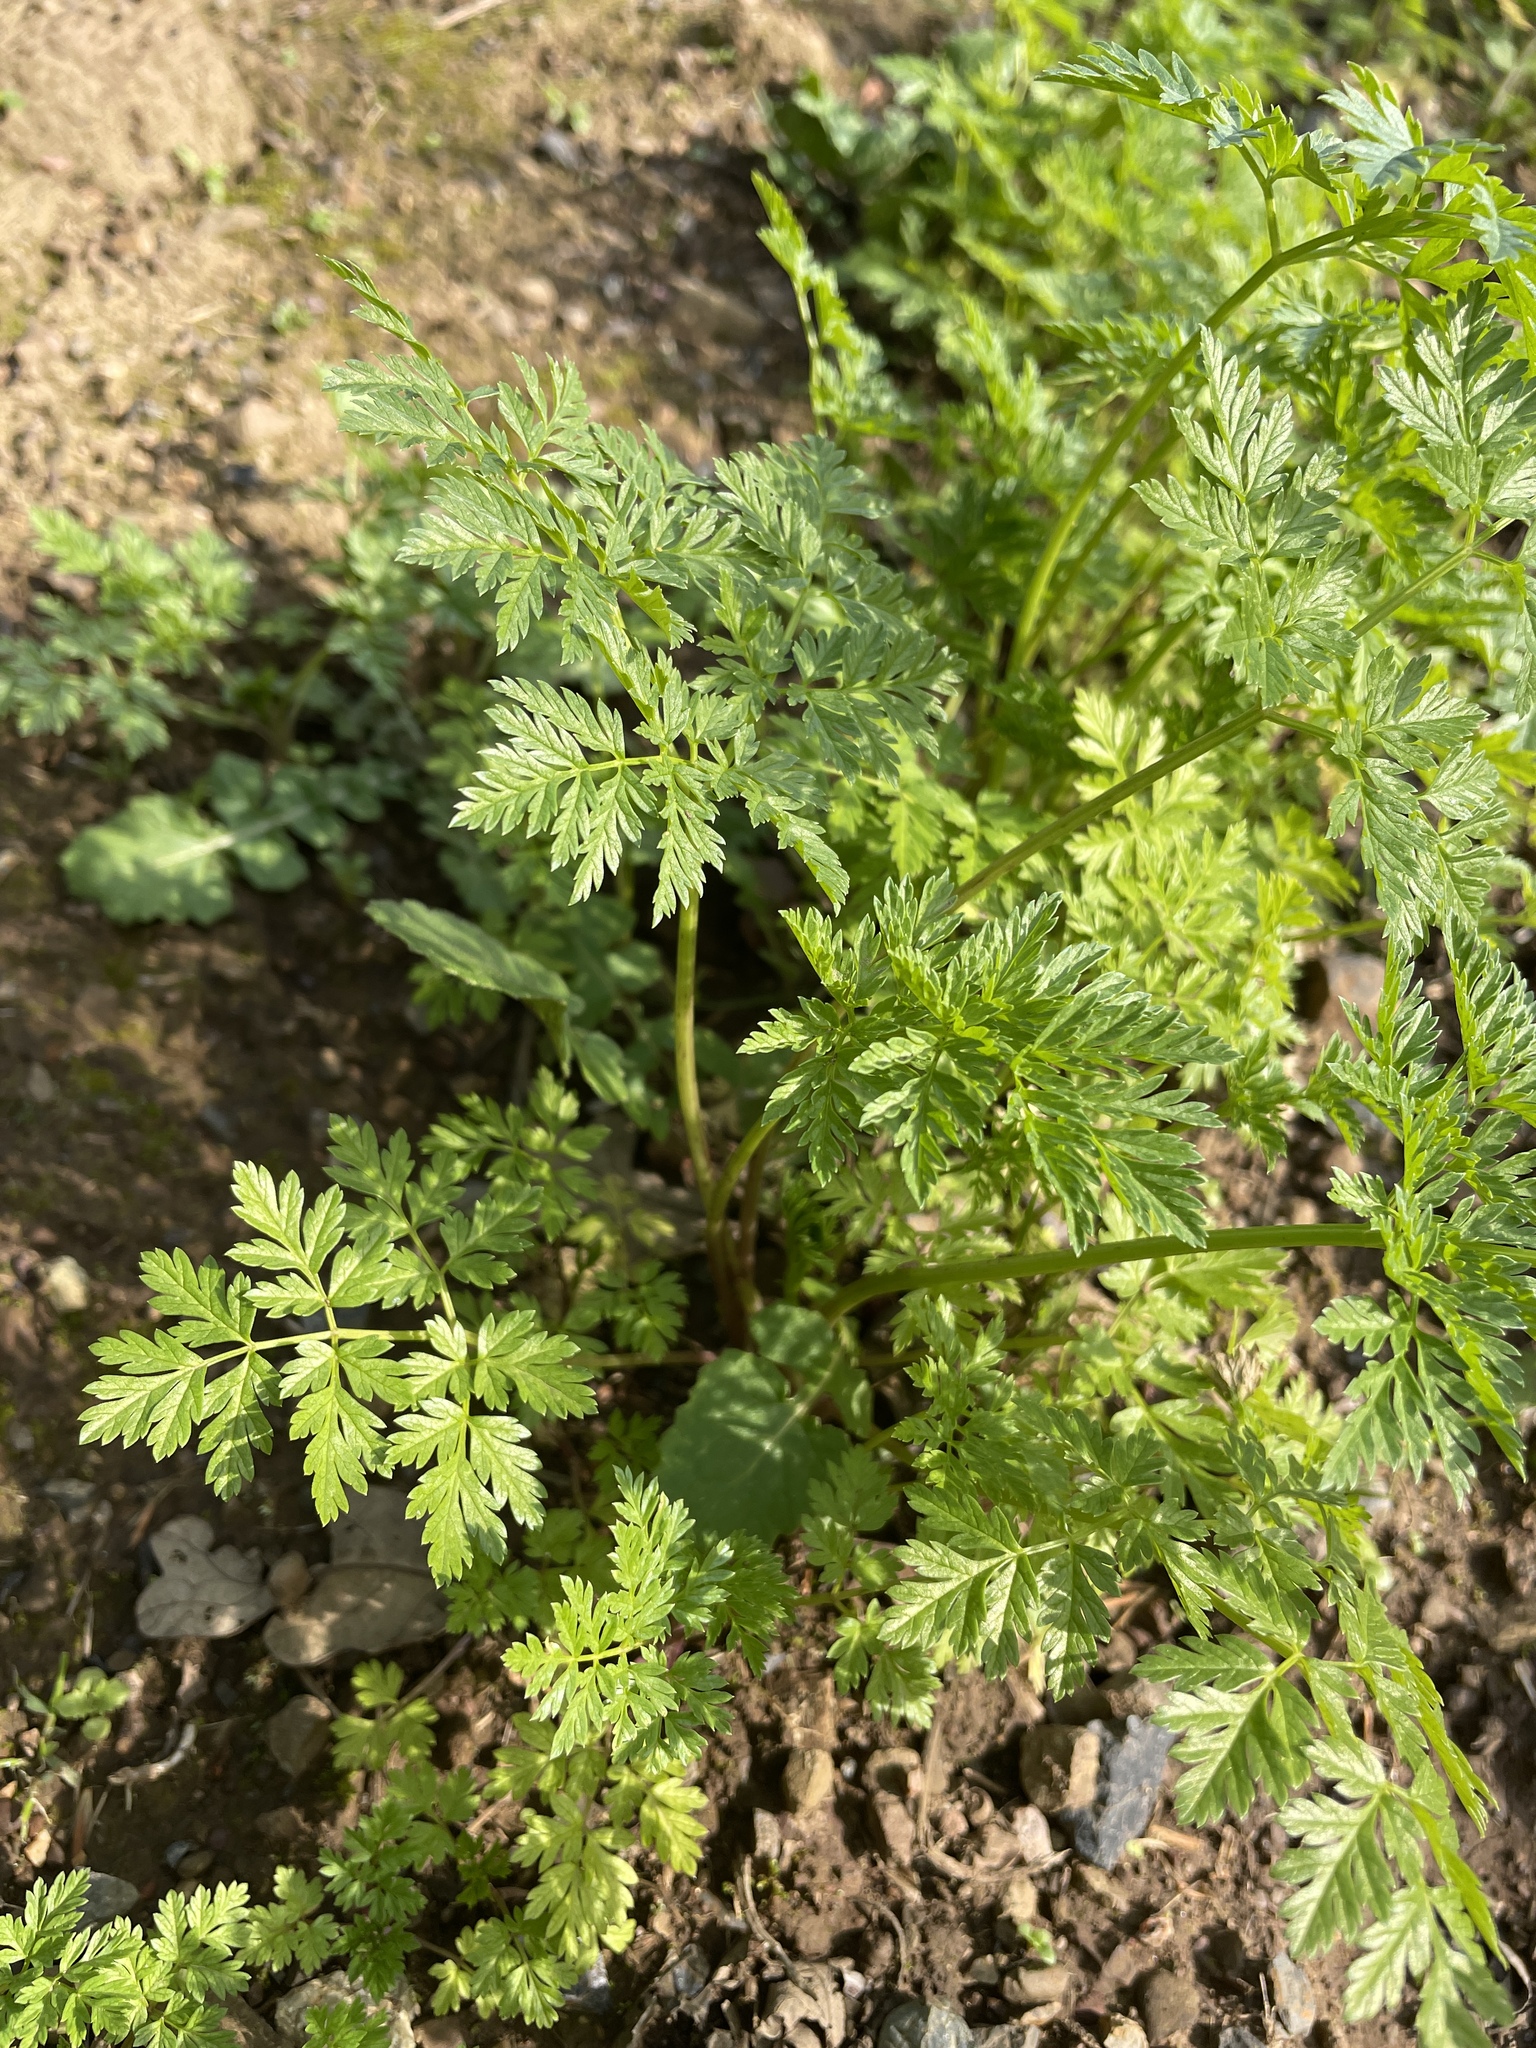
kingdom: Plantae
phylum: Tracheophyta
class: Magnoliopsida
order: Apiales
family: Apiaceae
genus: Conium
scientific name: Conium maculatum
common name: Hemlock
